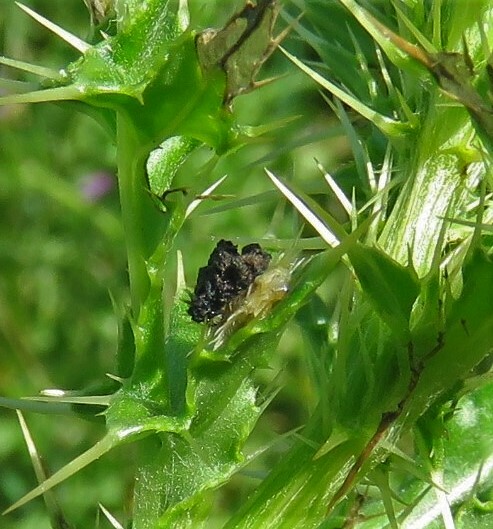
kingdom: Animalia
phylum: Arthropoda
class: Insecta
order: Coleoptera
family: Chrysomelidae
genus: Cassida
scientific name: Cassida rubiginosa
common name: Thistle tortoise beetle
